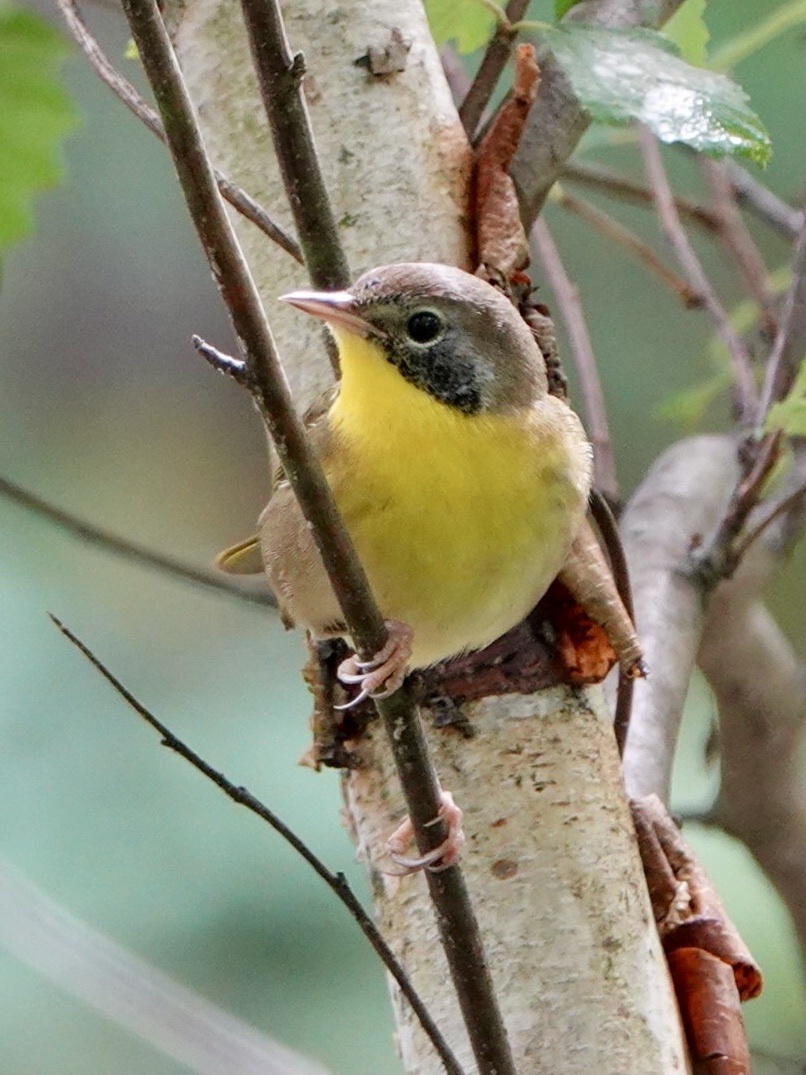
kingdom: Animalia
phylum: Chordata
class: Aves
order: Passeriformes
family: Parulidae
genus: Geothlypis
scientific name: Geothlypis trichas
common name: Common yellowthroat
